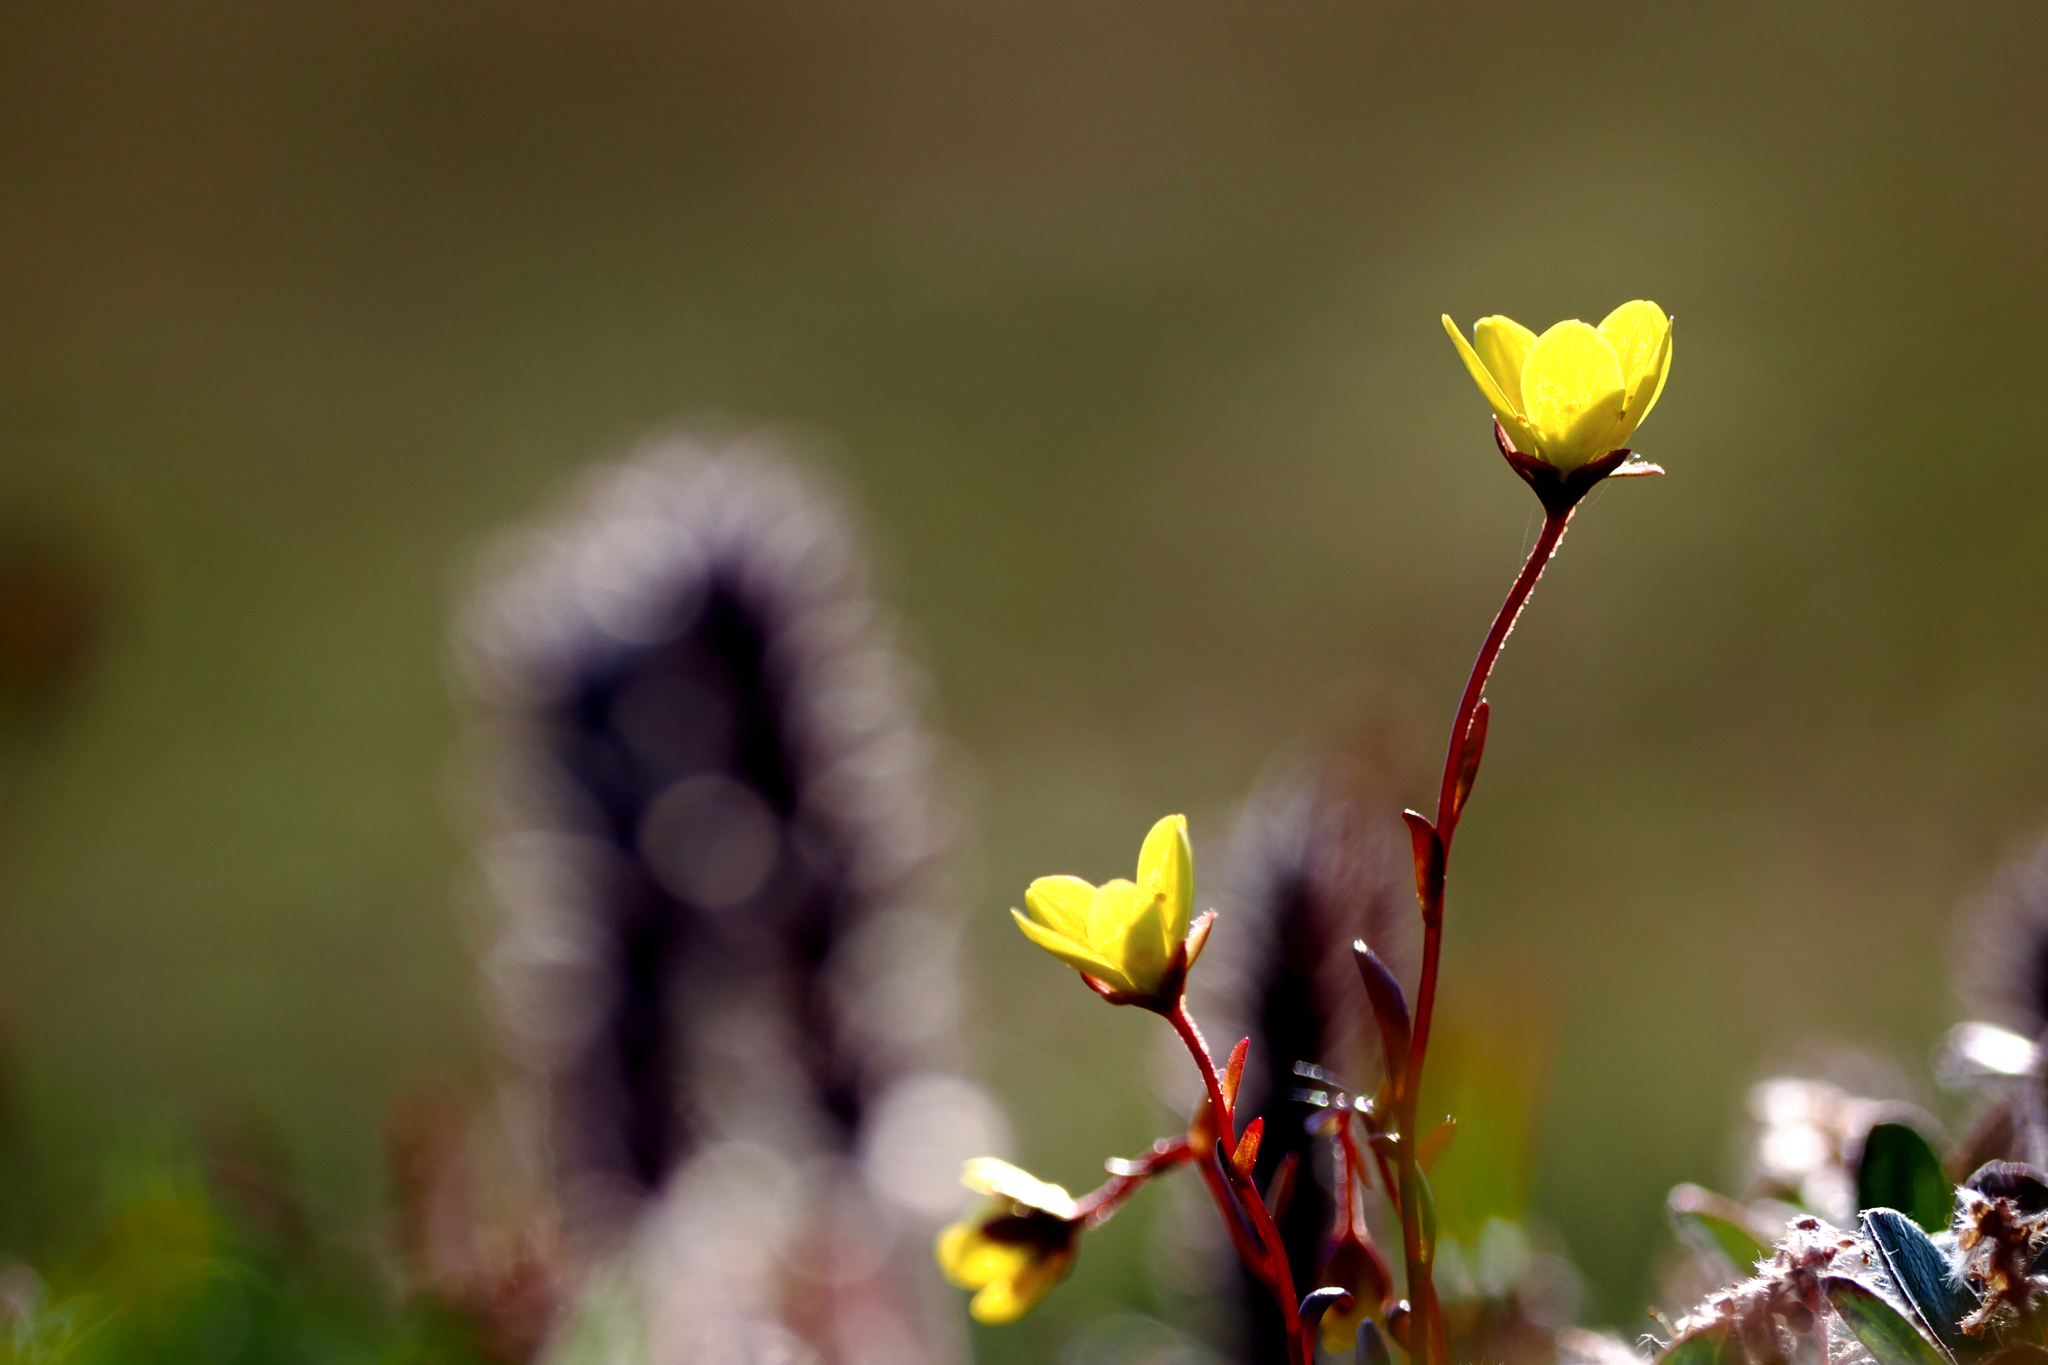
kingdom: Plantae
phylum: Tracheophyta
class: Magnoliopsida
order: Saxifragales
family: Saxifragaceae
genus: Saxifraga
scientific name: Saxifraga hirculus
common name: Yellow marsh saxifrage
